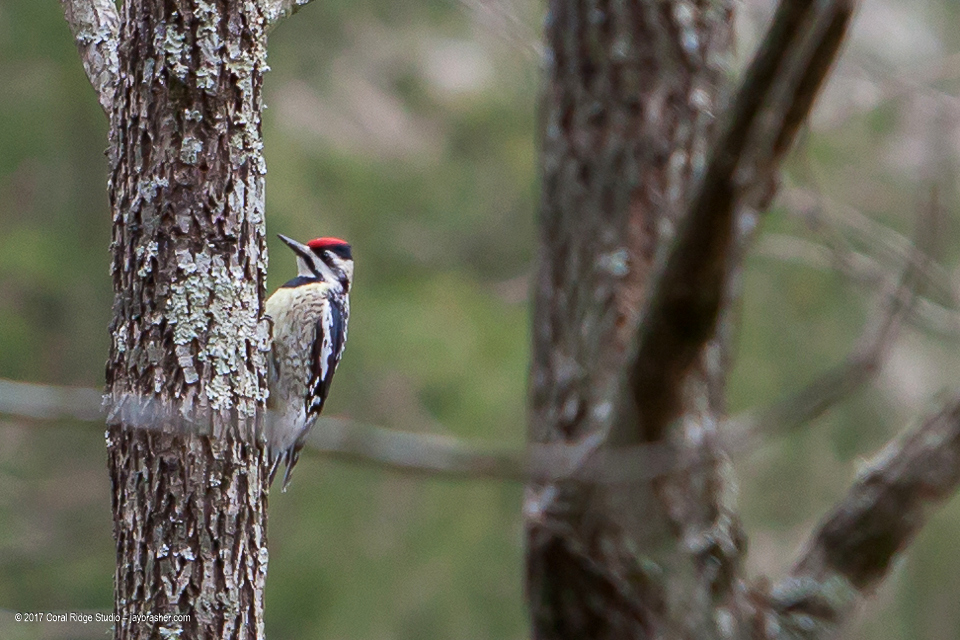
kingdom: Animalia
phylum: Chordata
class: Aves
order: Piciformes
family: Picidae
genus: Sphyrapicus
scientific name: Sphyrapicus varius
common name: Yellow-bellied sapsucker
